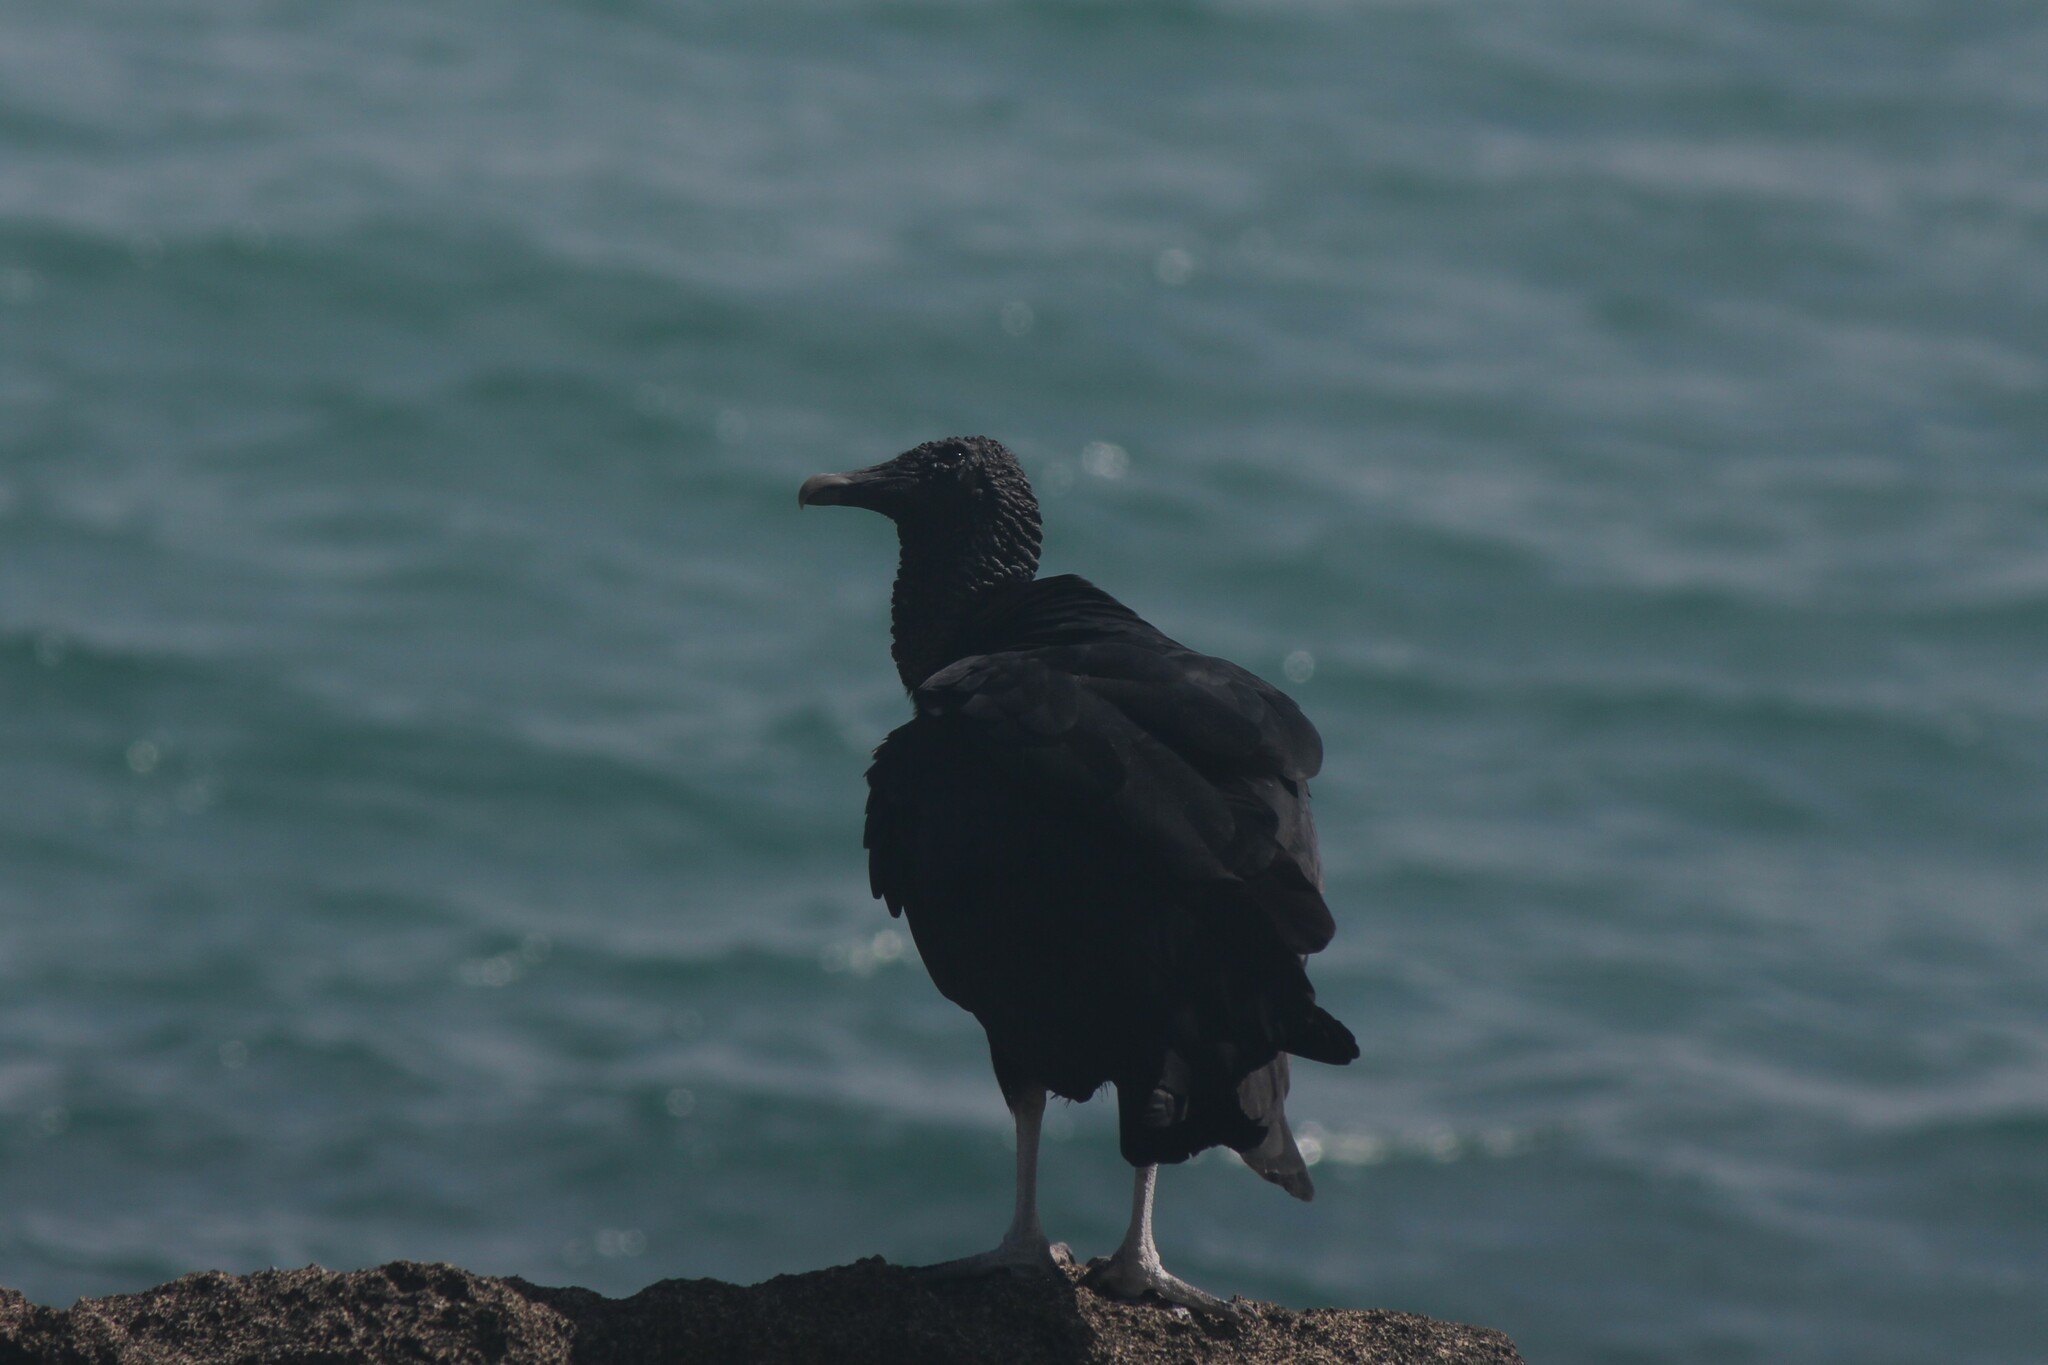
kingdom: Animalia
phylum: Chordata
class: Aves
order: Accipitriformes
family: Cathartidae
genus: Coragyps
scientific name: Coragyps atratus
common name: Black vulture
